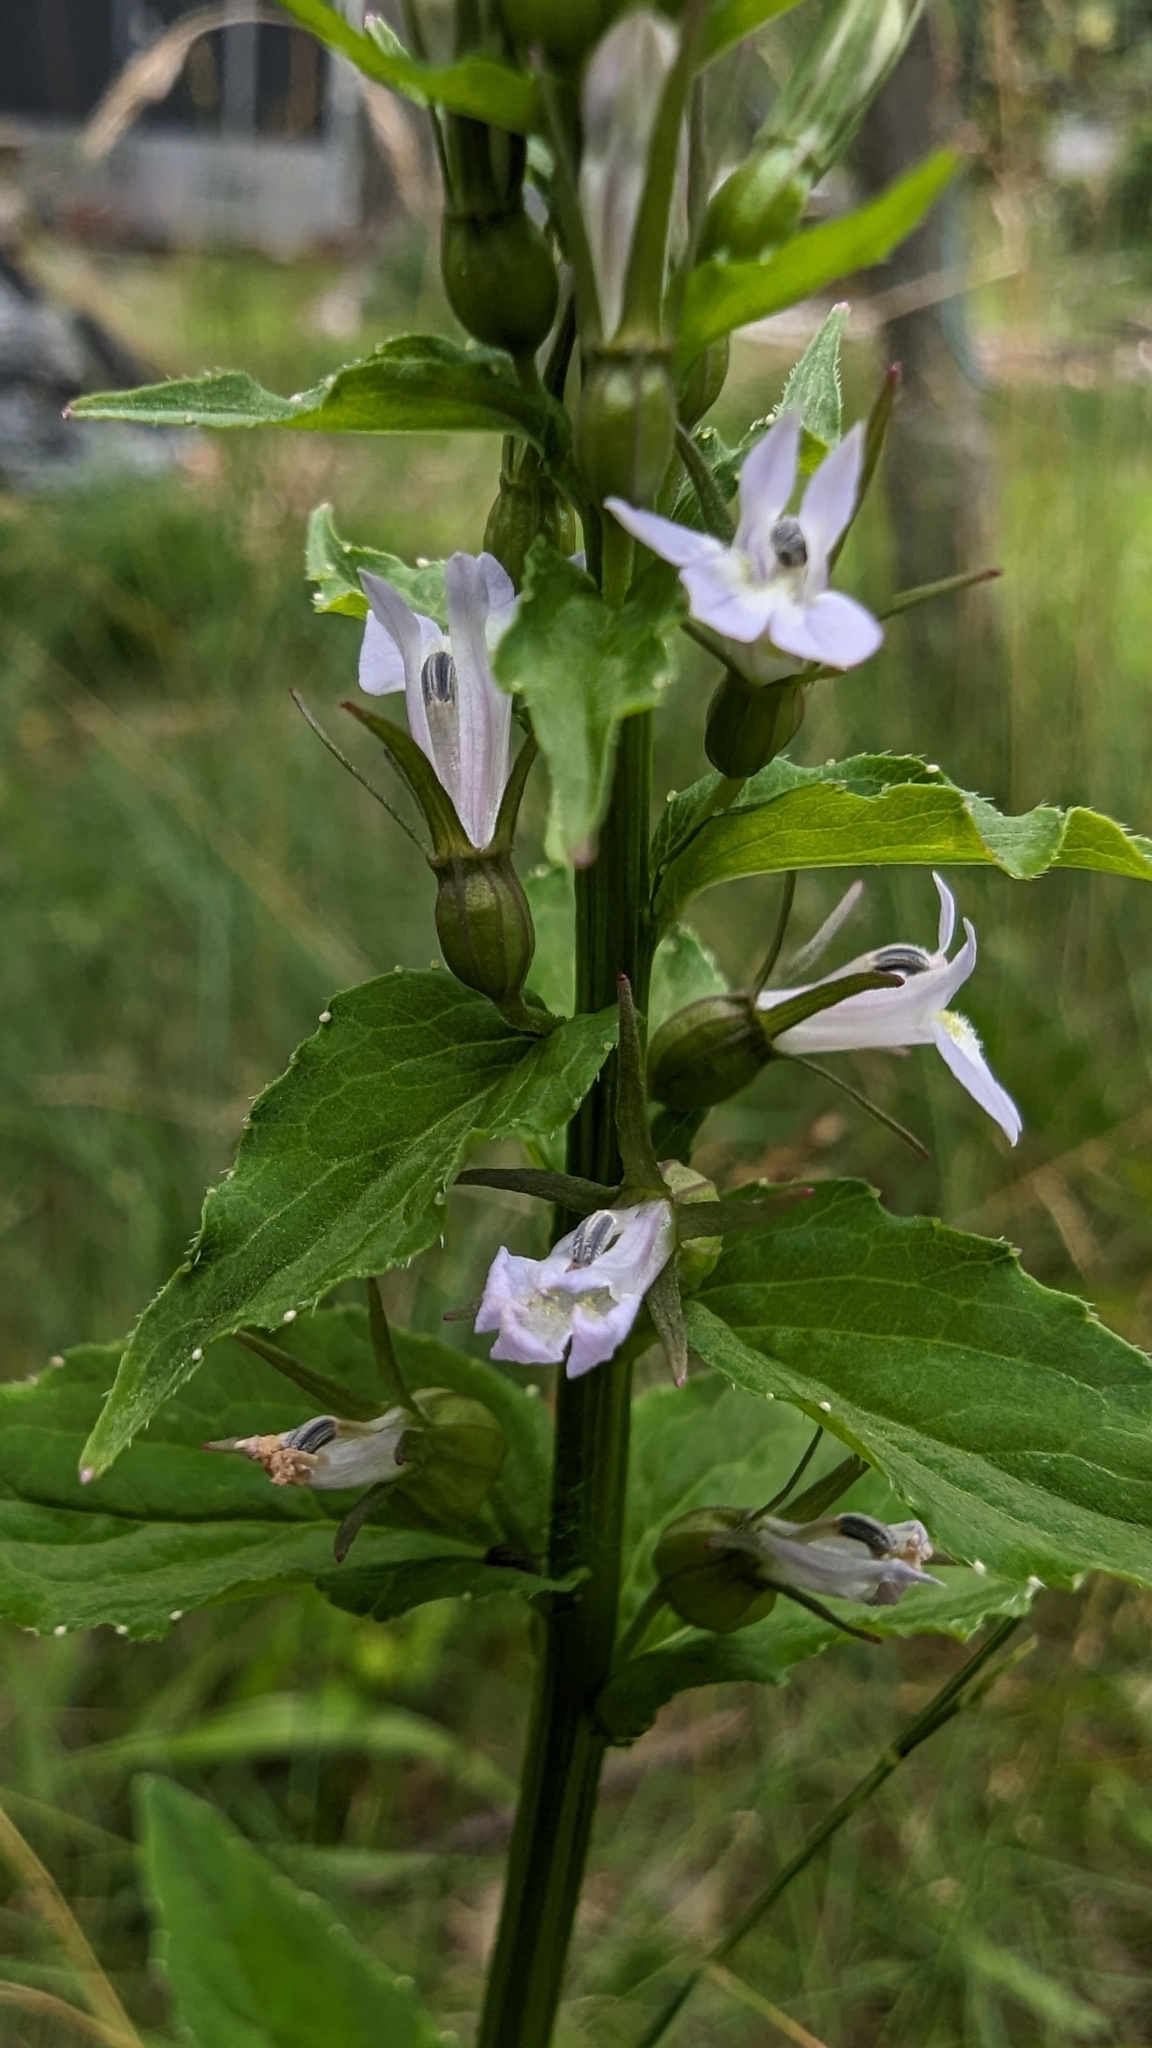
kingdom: Plantae
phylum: Tracheophyta
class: Magnoliopsida
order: Asterales
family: Campanulaceae
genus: Lobelia
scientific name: Lobelia inflata
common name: Indian tobacco
